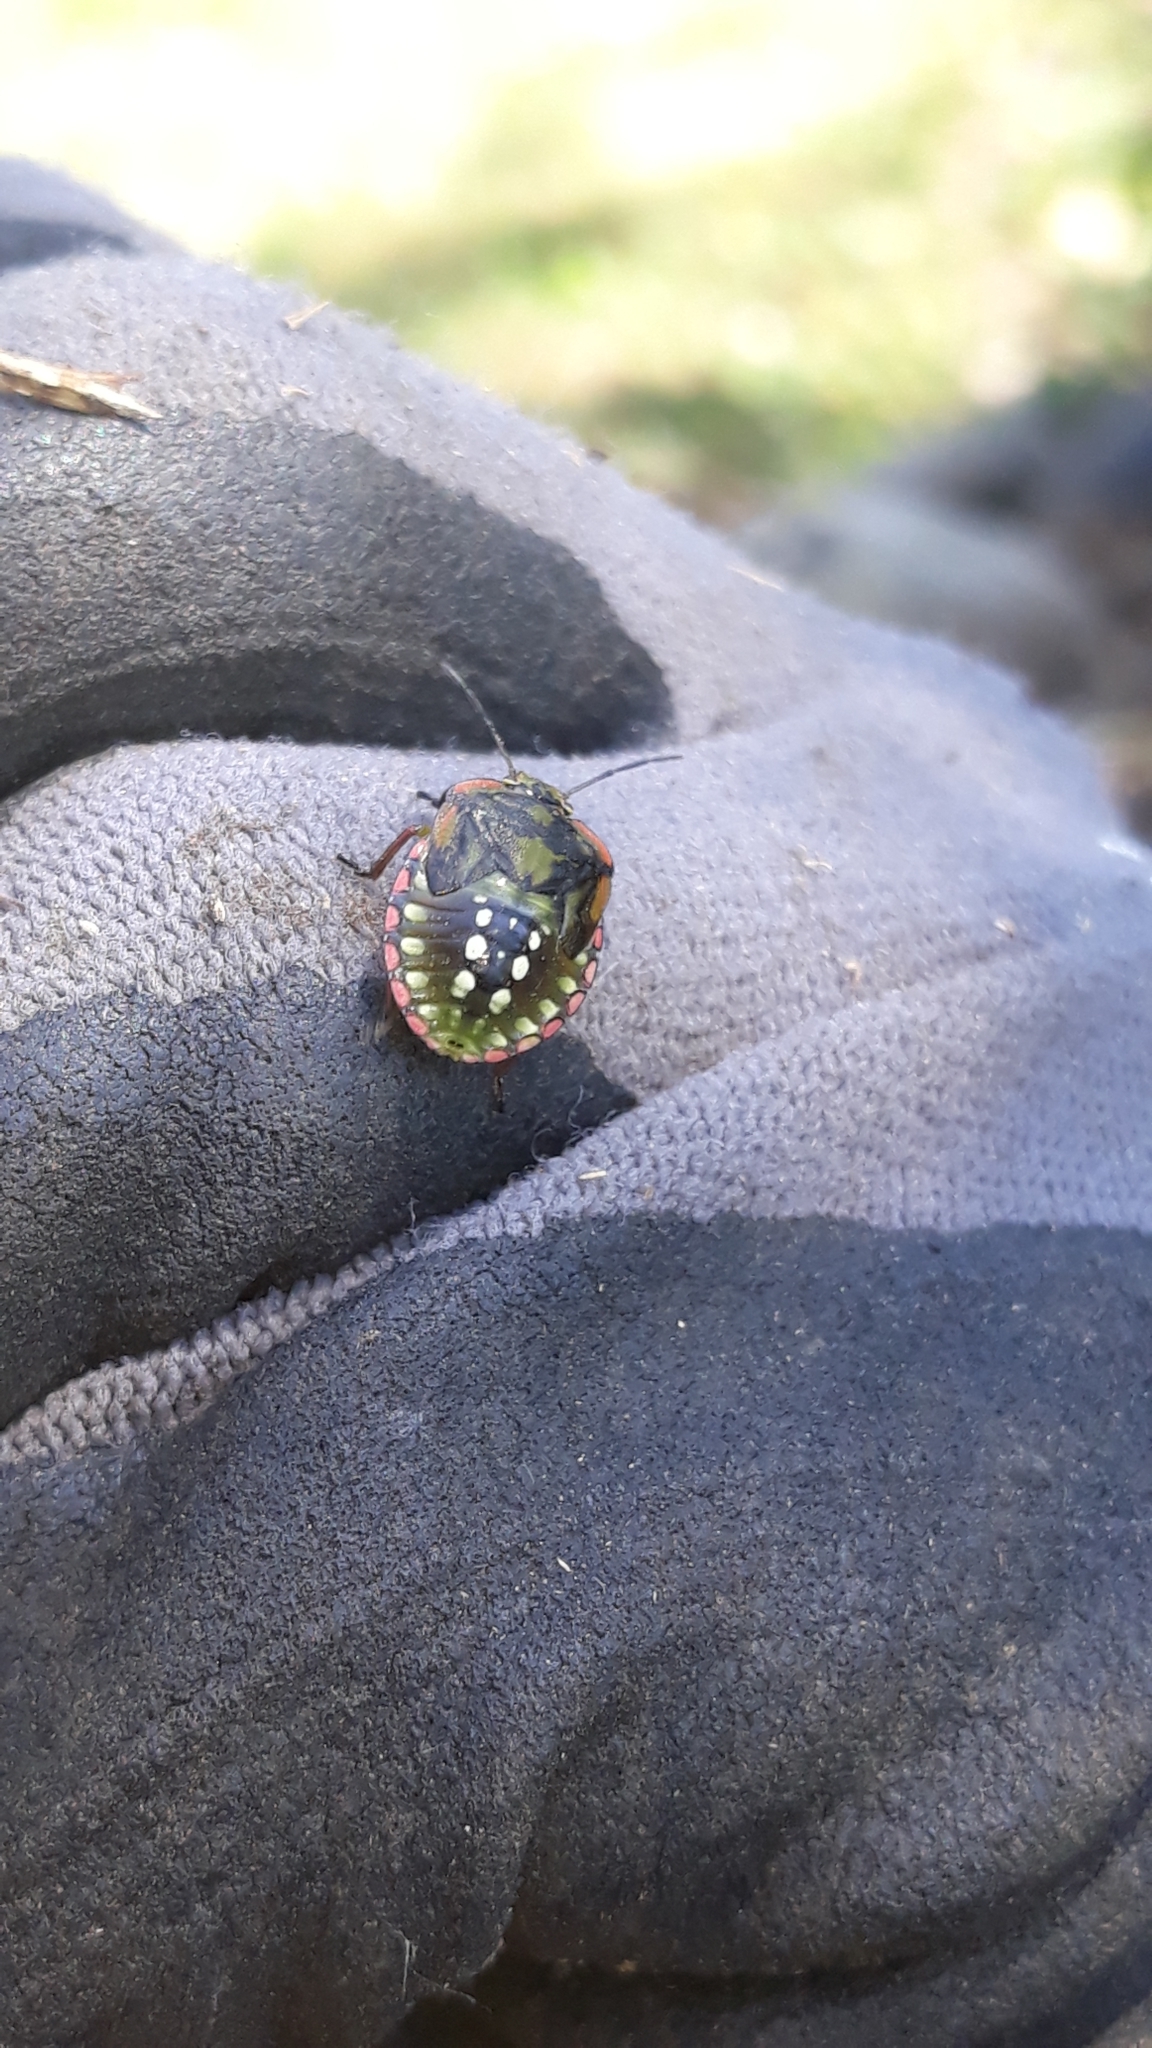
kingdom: Animalia
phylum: Arthropoda
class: Insecta
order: Hemiptera
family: Pentatomidae
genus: Nezara
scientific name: Nezara viridula
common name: Southern green stink bug
